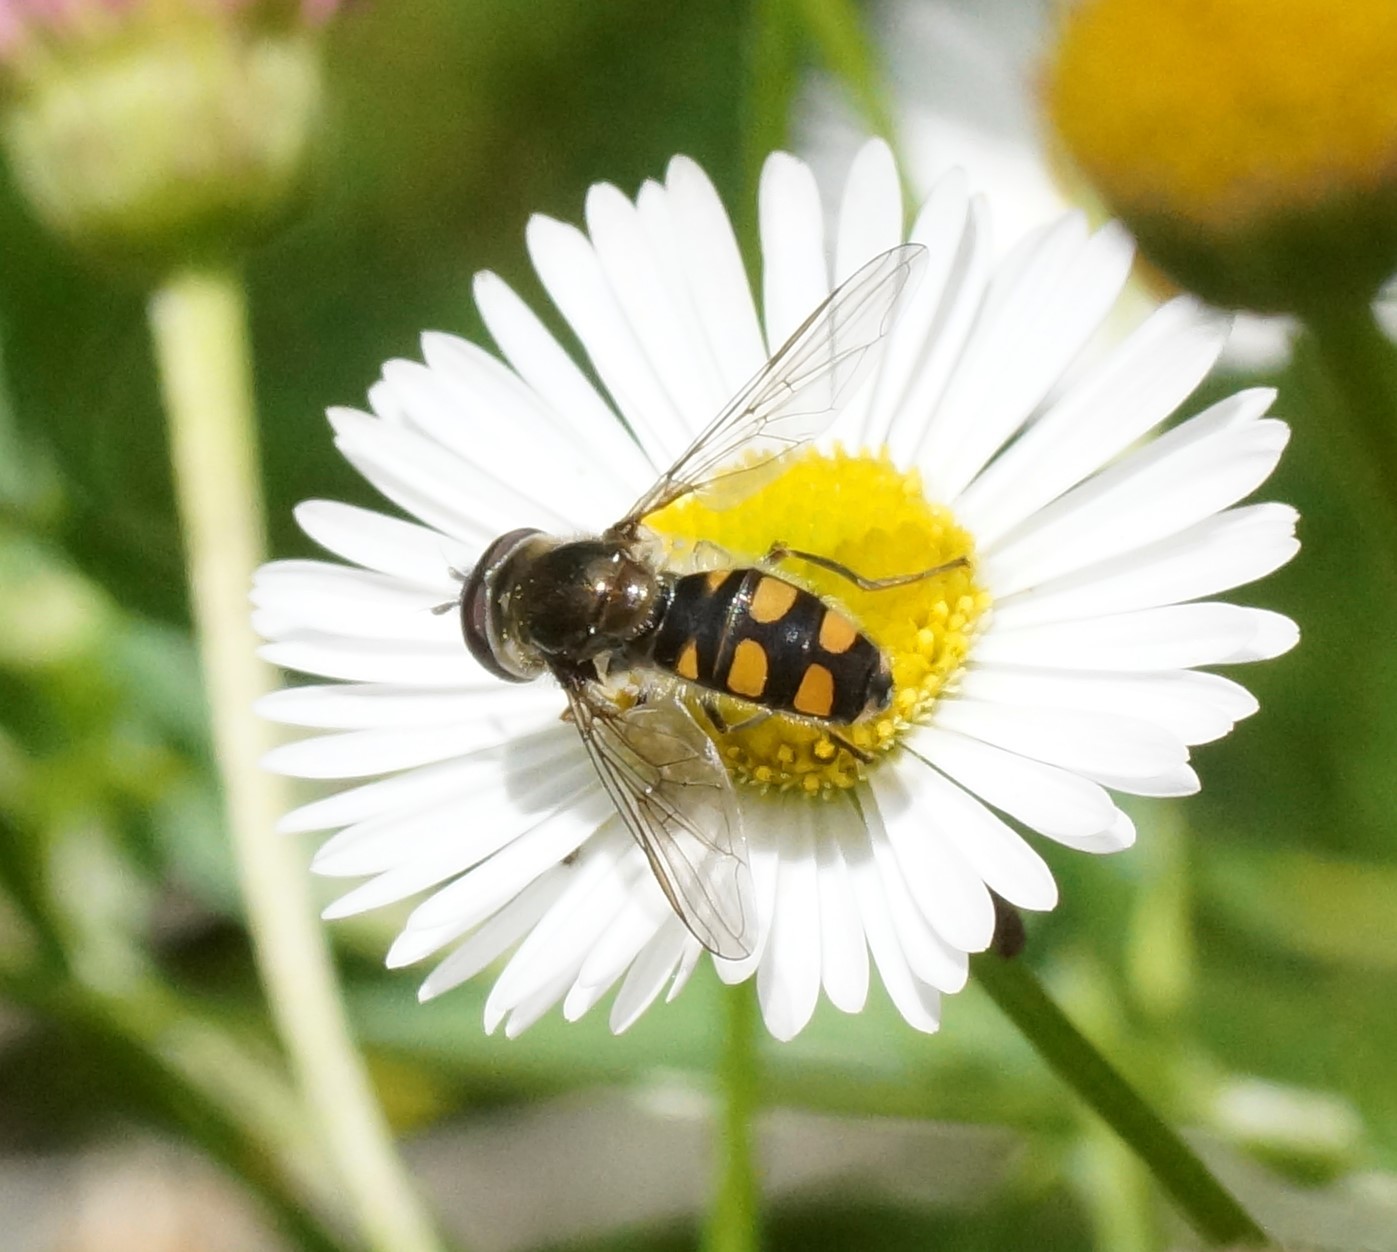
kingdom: Animalia
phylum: Arthropoda
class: Insecta
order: Diptera
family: Syrphidae
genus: Melangyna
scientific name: Melangyna viridiceps
